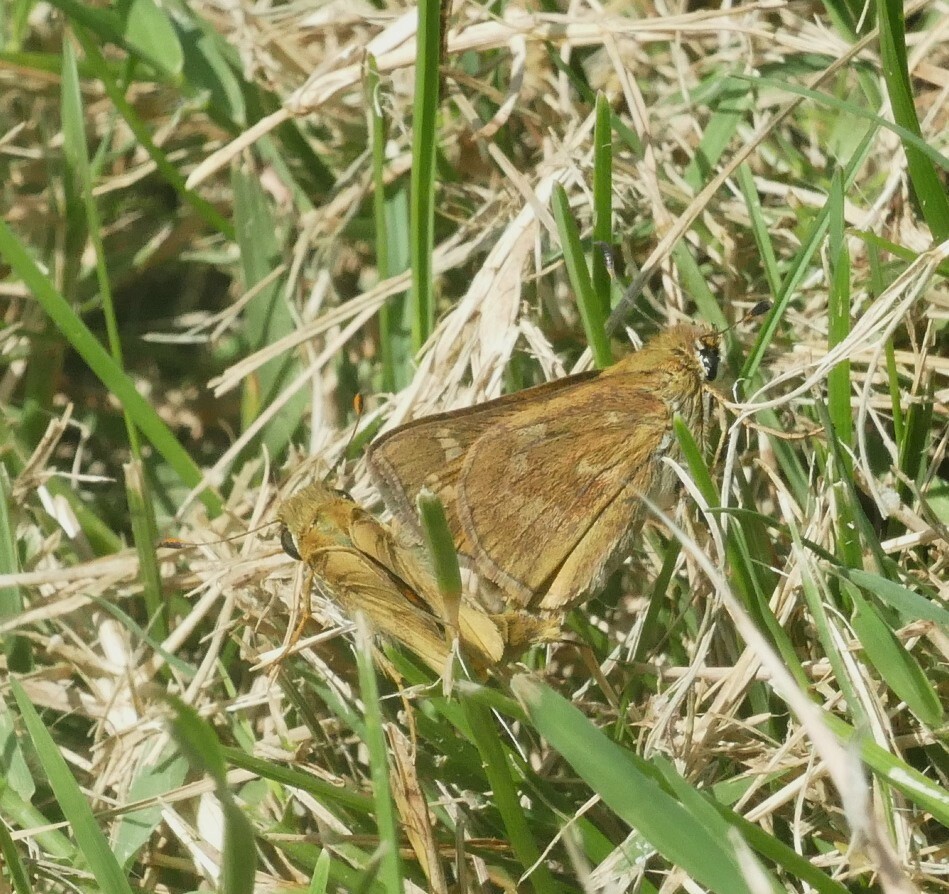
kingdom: Animalia
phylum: Arthropoda
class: Insecta
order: Lepidoptera
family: Hesperiidae
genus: Atalopedes
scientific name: Atalopedes
